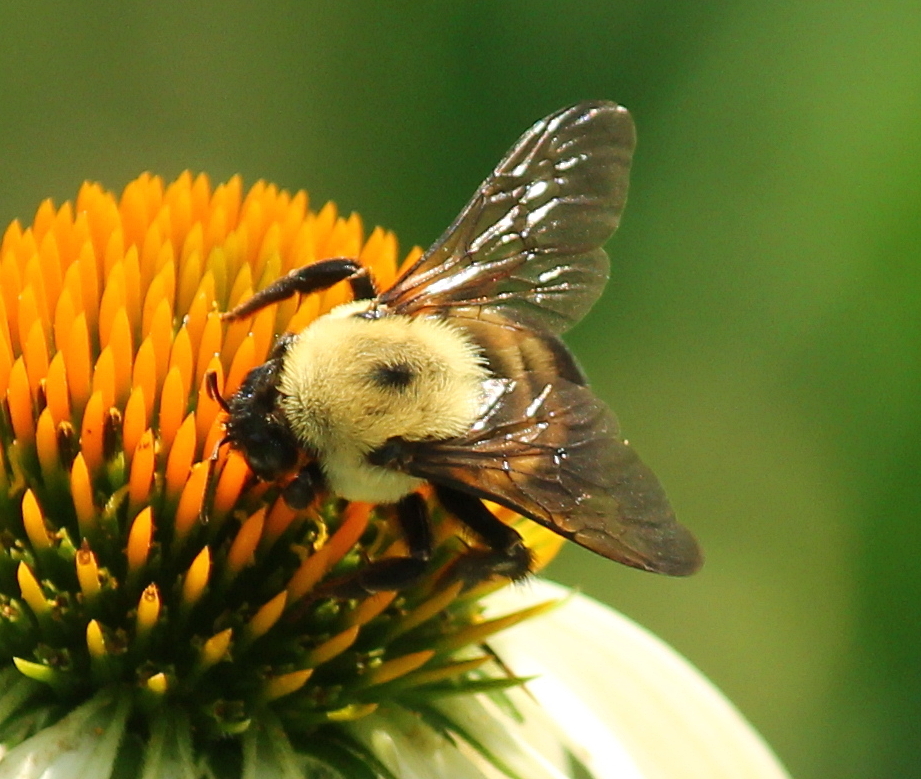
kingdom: Animalia
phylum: Arthropoda
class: Insecta
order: Hymenoptera
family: Apidae
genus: Bombus
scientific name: Bombus griseocollis
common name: Brown-belted bumble bee
